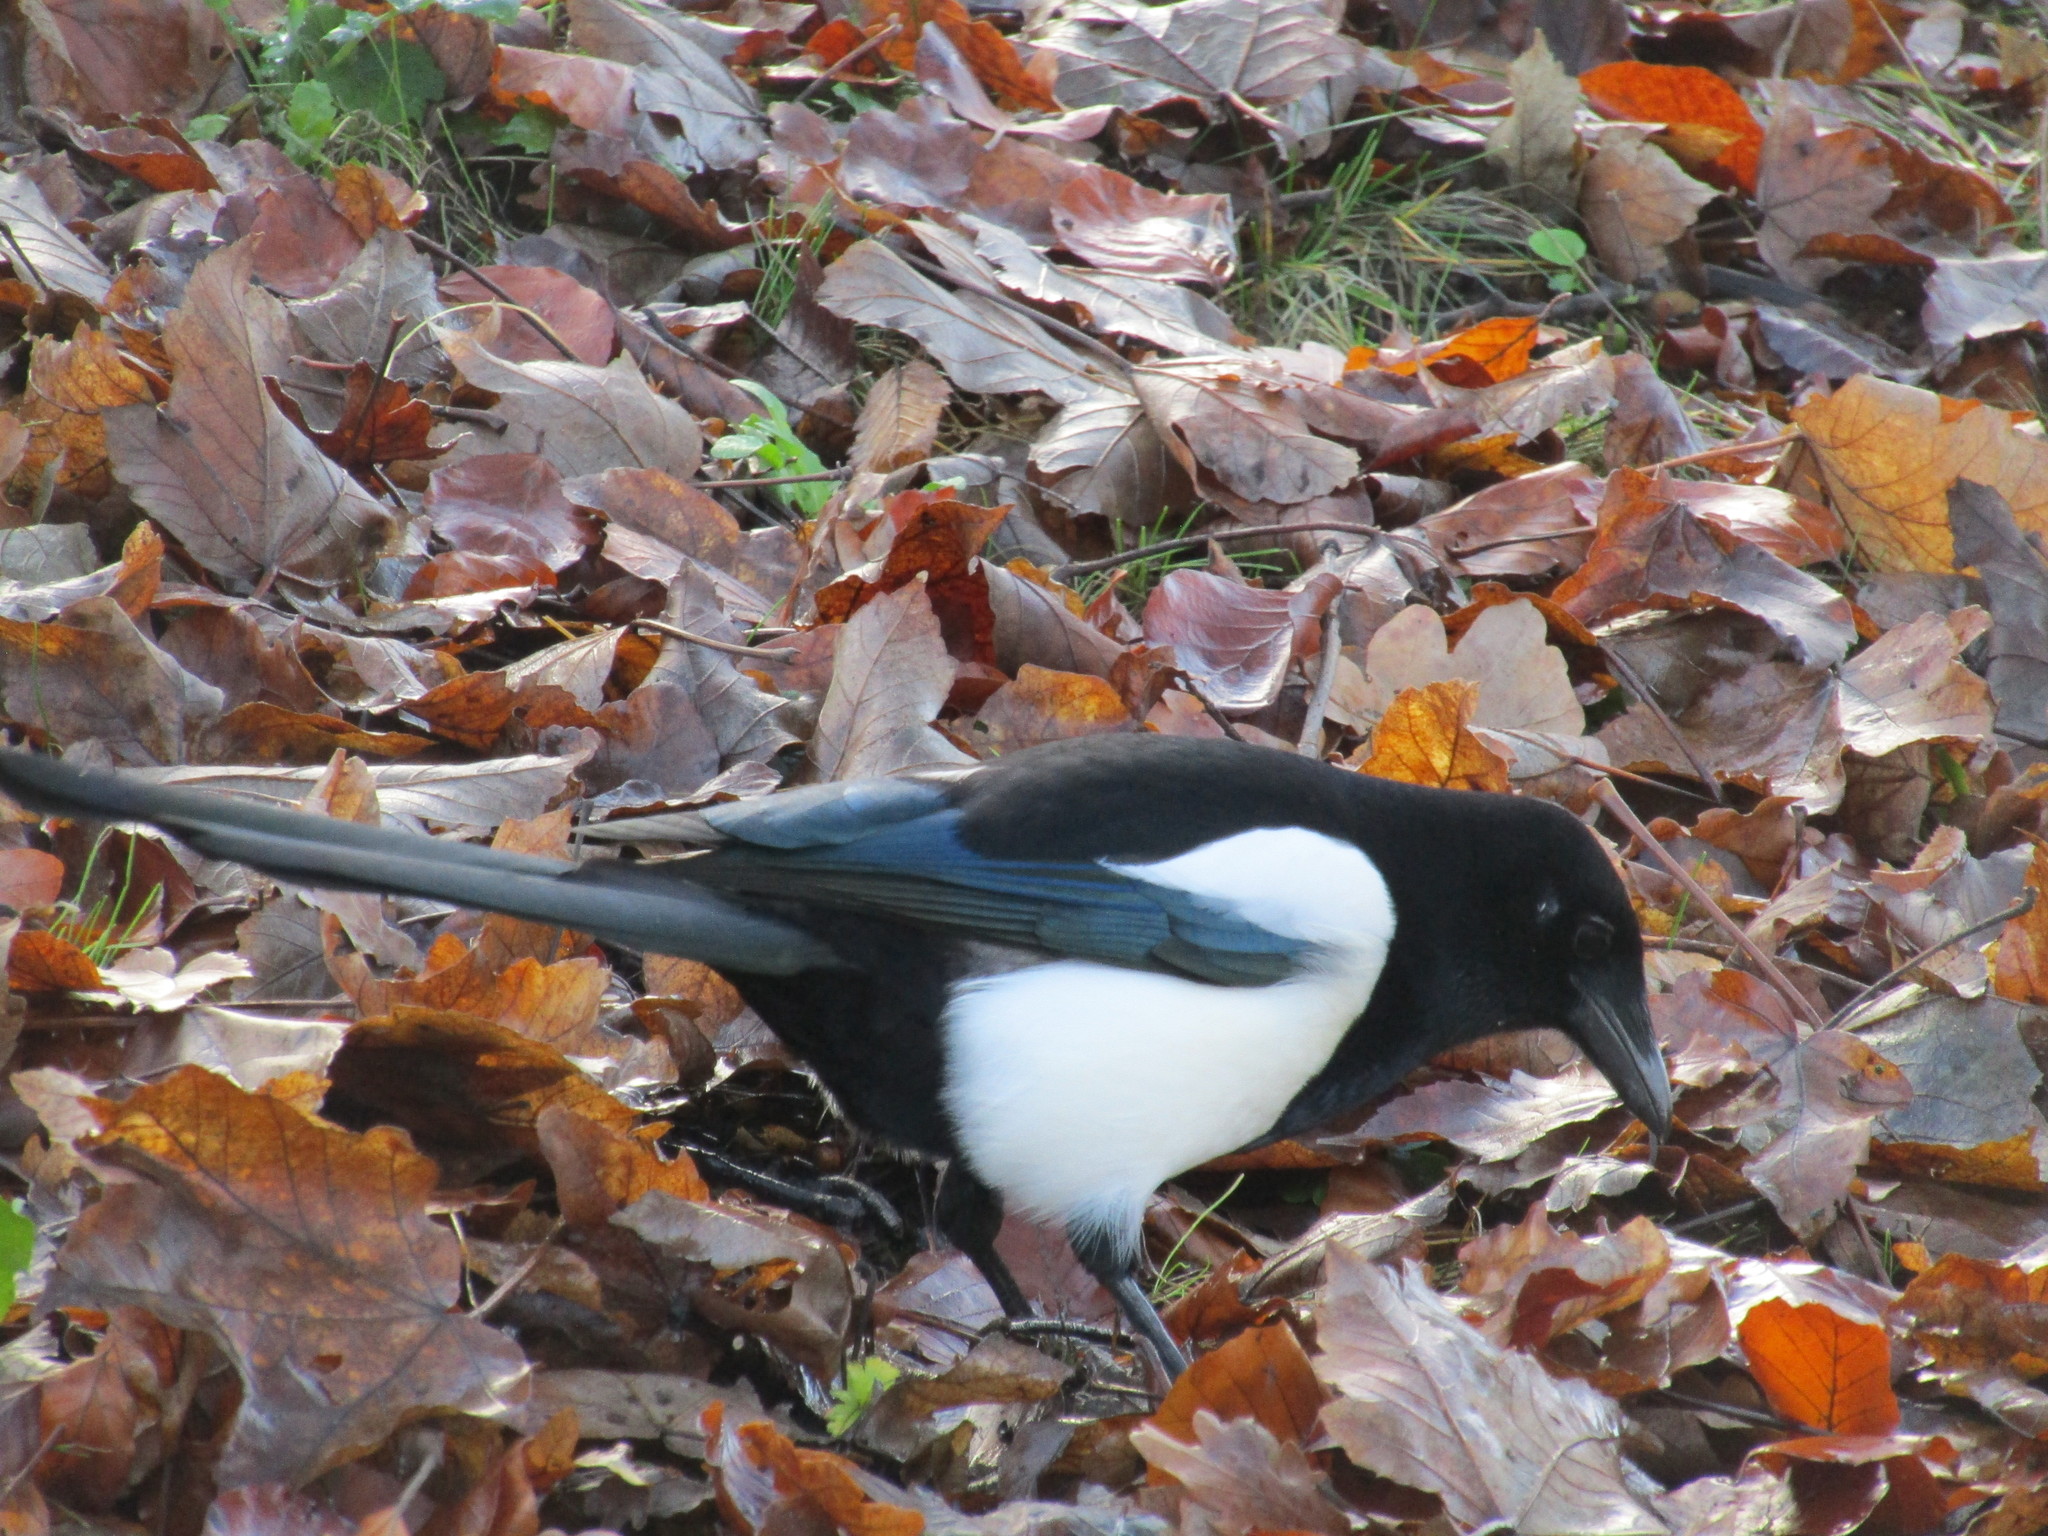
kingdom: Animalia
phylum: Chordata
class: Aves
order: Passeriformes
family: Corvidae
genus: Pica
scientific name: Pica pica
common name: Eurasian magpie
